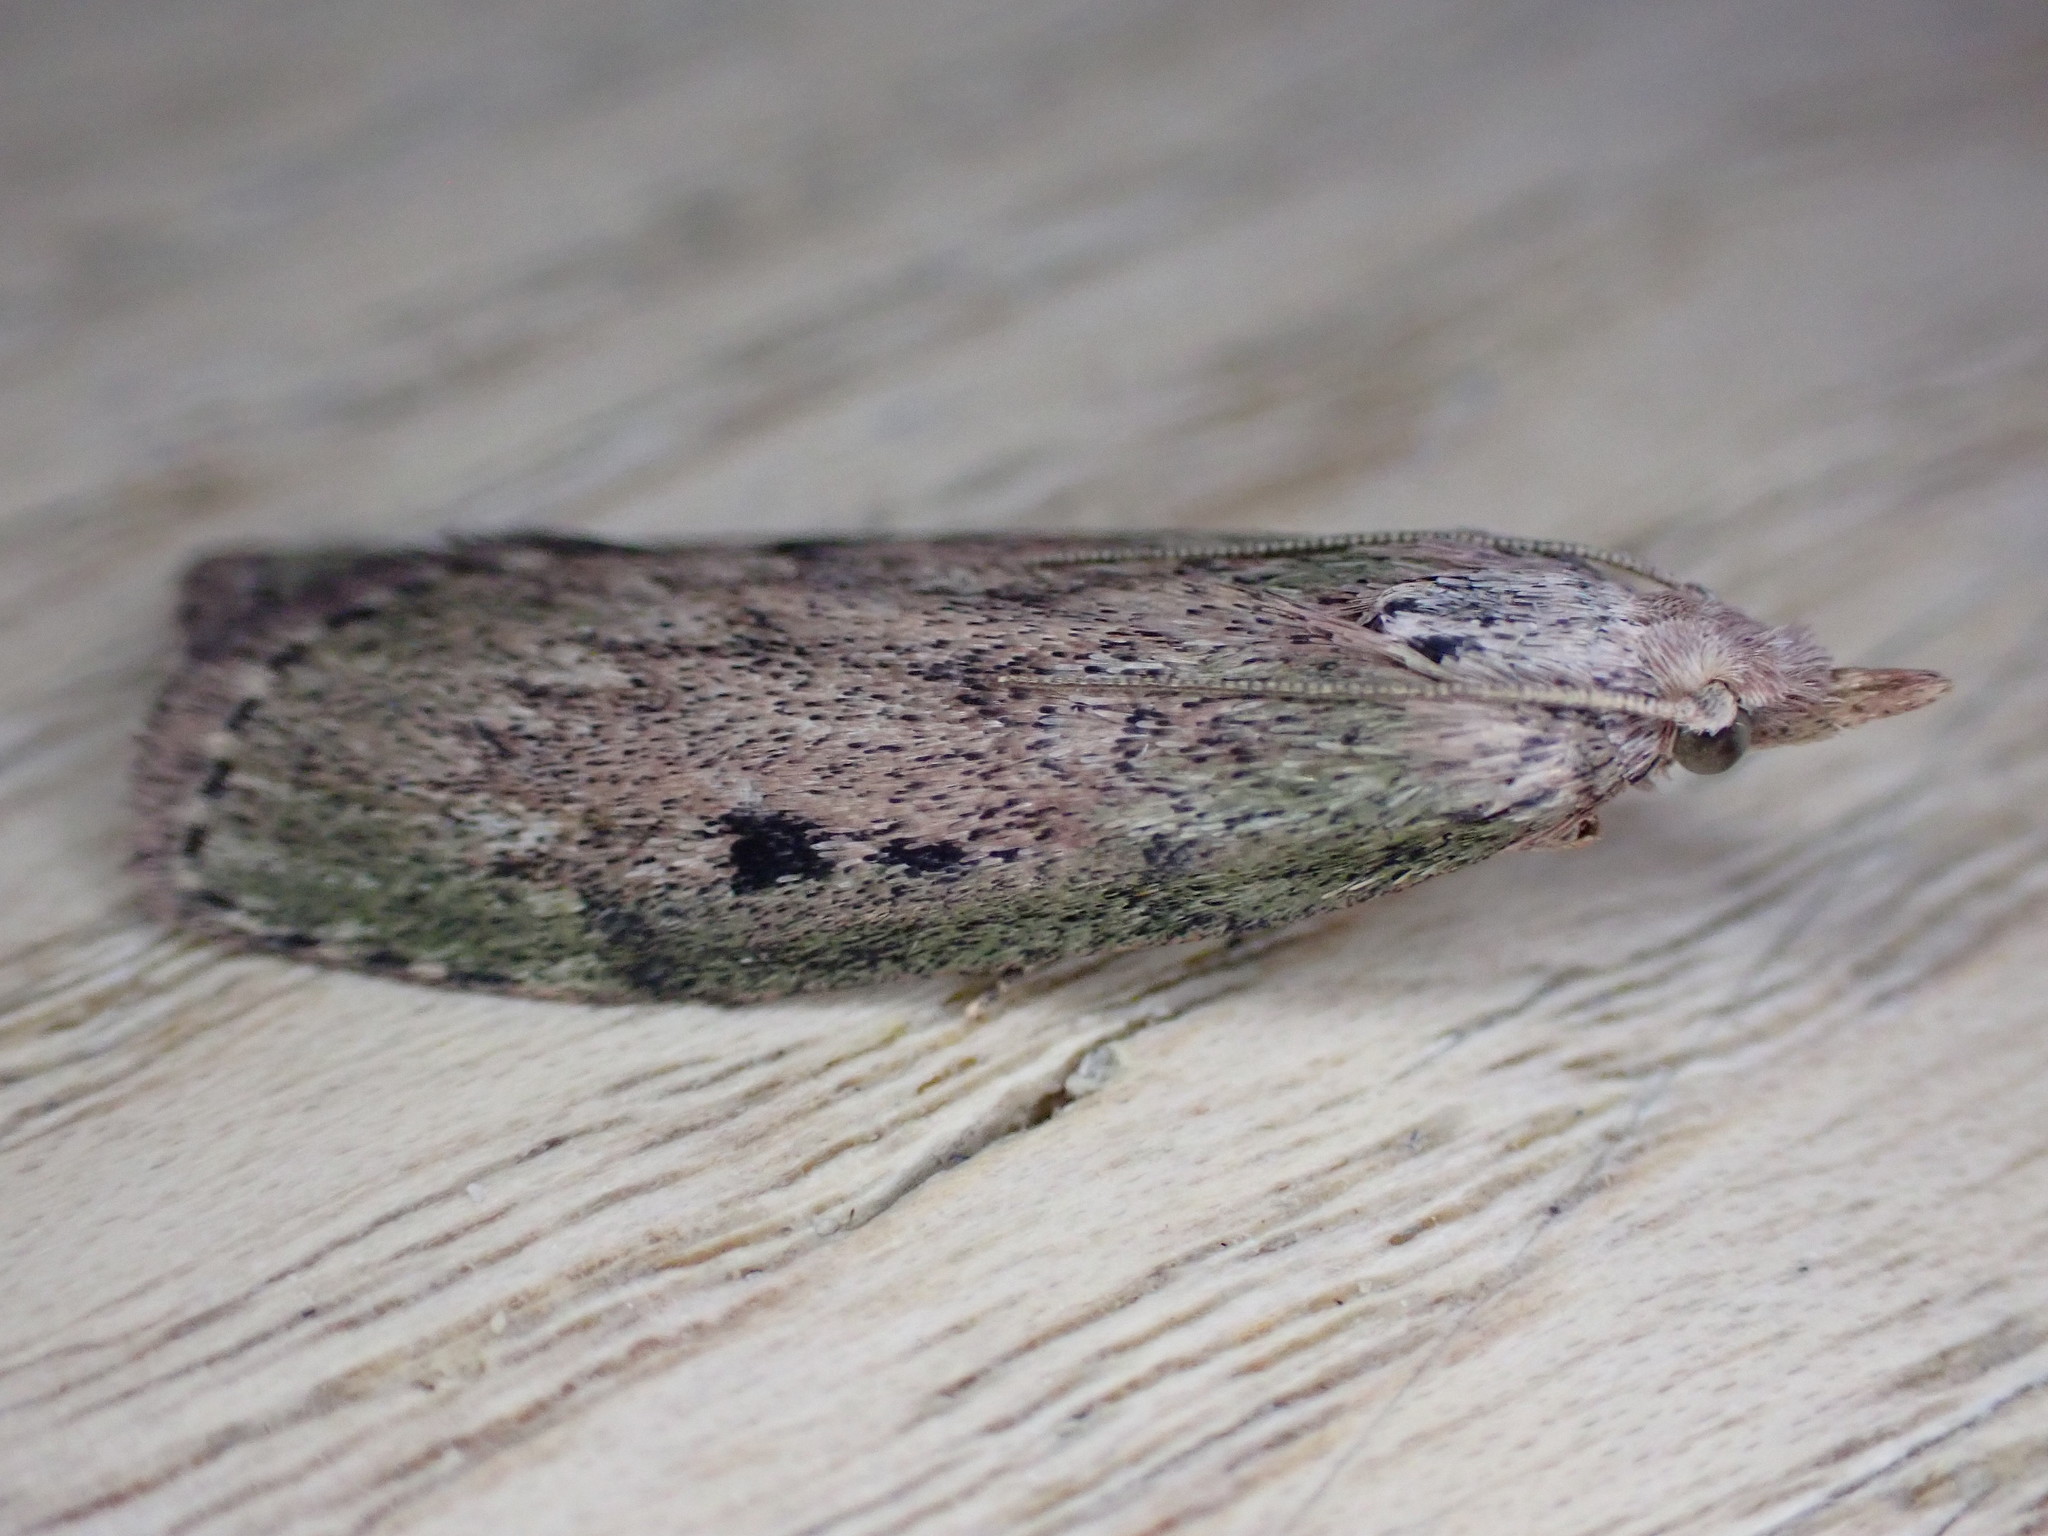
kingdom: Animalia
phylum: Arthropoda
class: Insecta
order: Lepidoptera
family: Pyralidae
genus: Aphomia
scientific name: Aphomia sociella
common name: Bee moth
